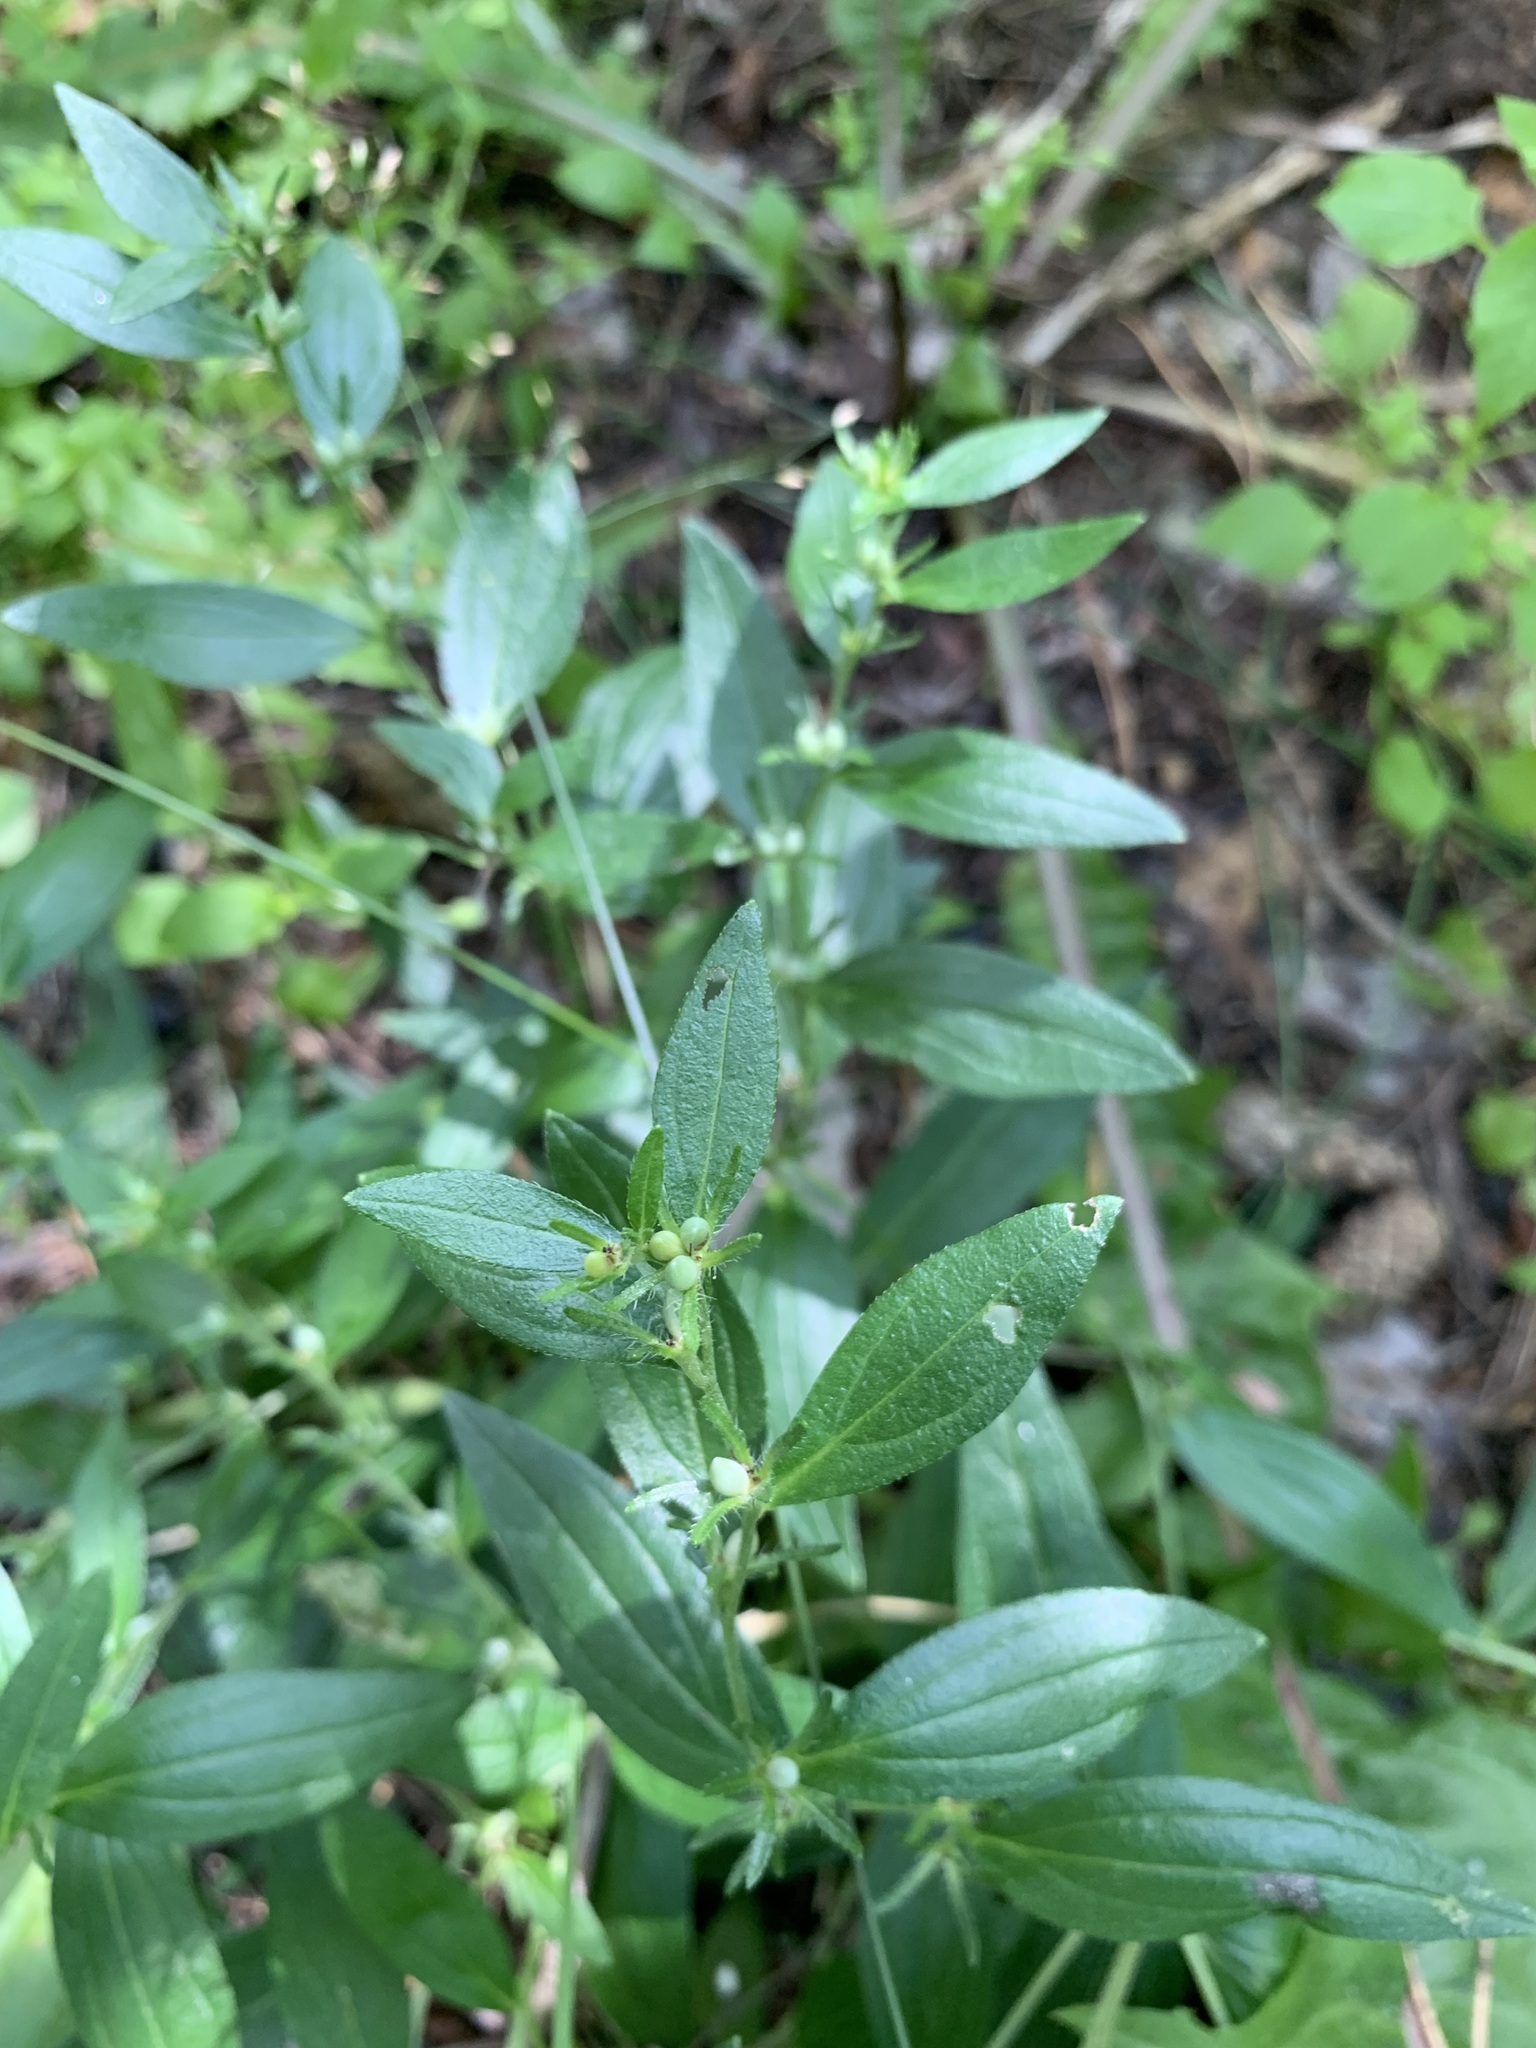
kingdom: Plantae
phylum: Tracheophyta
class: Magnoliopsida
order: Boraginales
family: Boraginaceae
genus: Lithospermum
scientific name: Lithospermum officinale
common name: Common gromwell
